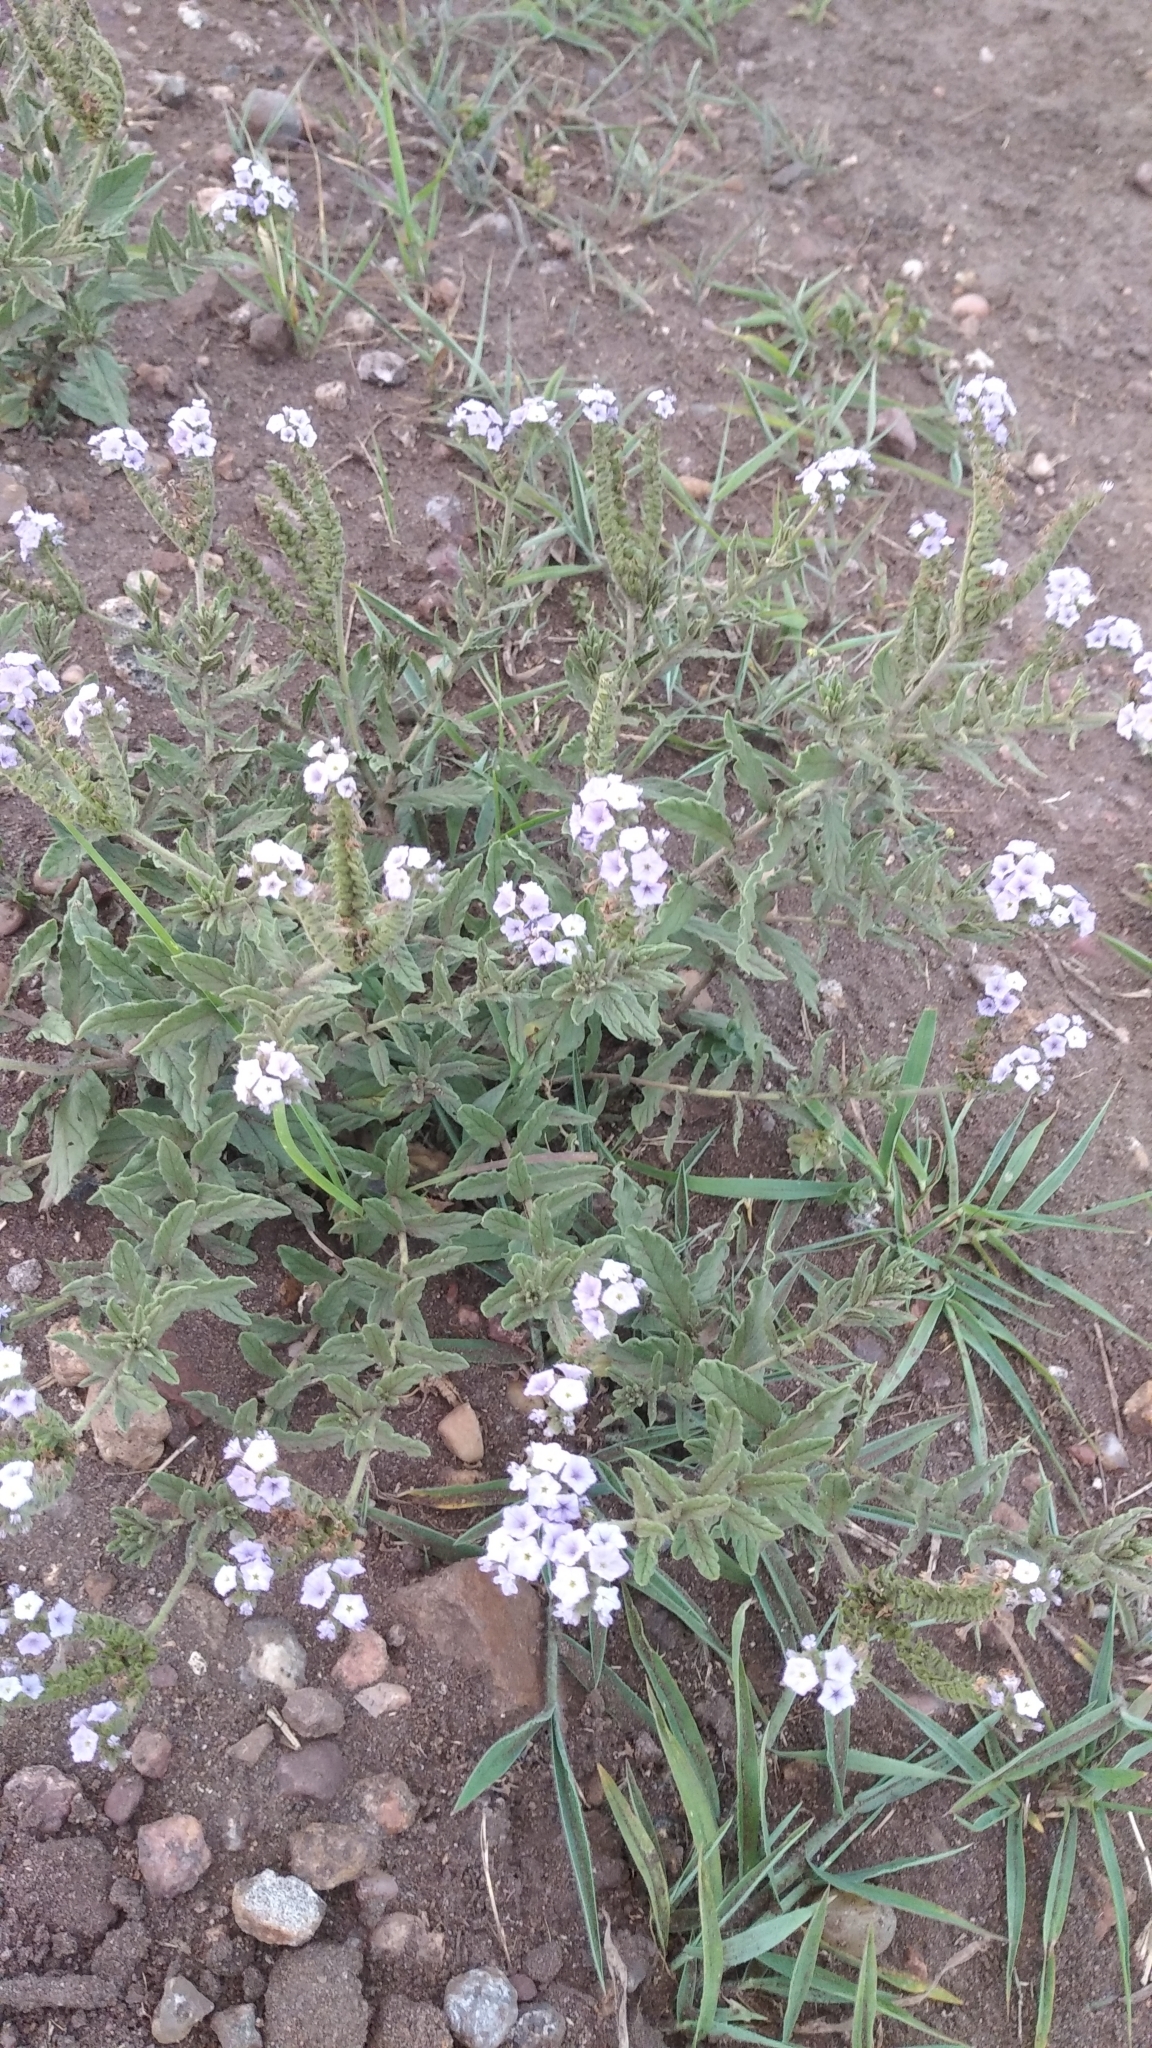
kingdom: Plantae
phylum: Tracheophyta
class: Magnoliopsida
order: Boraginales
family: Heliotropiaceae
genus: Heliotropium
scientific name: Heliotropium amplexicaule
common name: Clasping heliotrope
